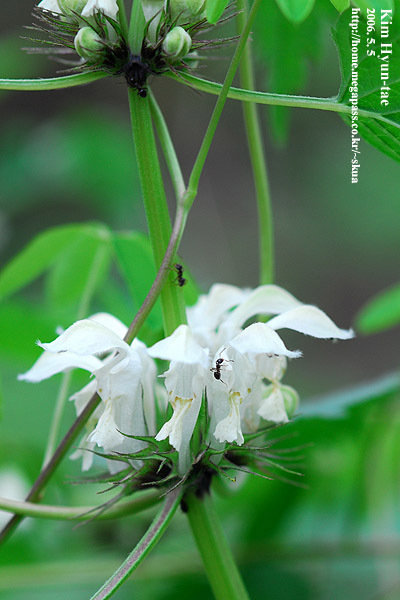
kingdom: Plantae
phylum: Tracheophyta
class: Magnoliopsida
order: Lamiales
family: Lamiaceae
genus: Lamium
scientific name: Lamium album
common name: White dead-nettle
